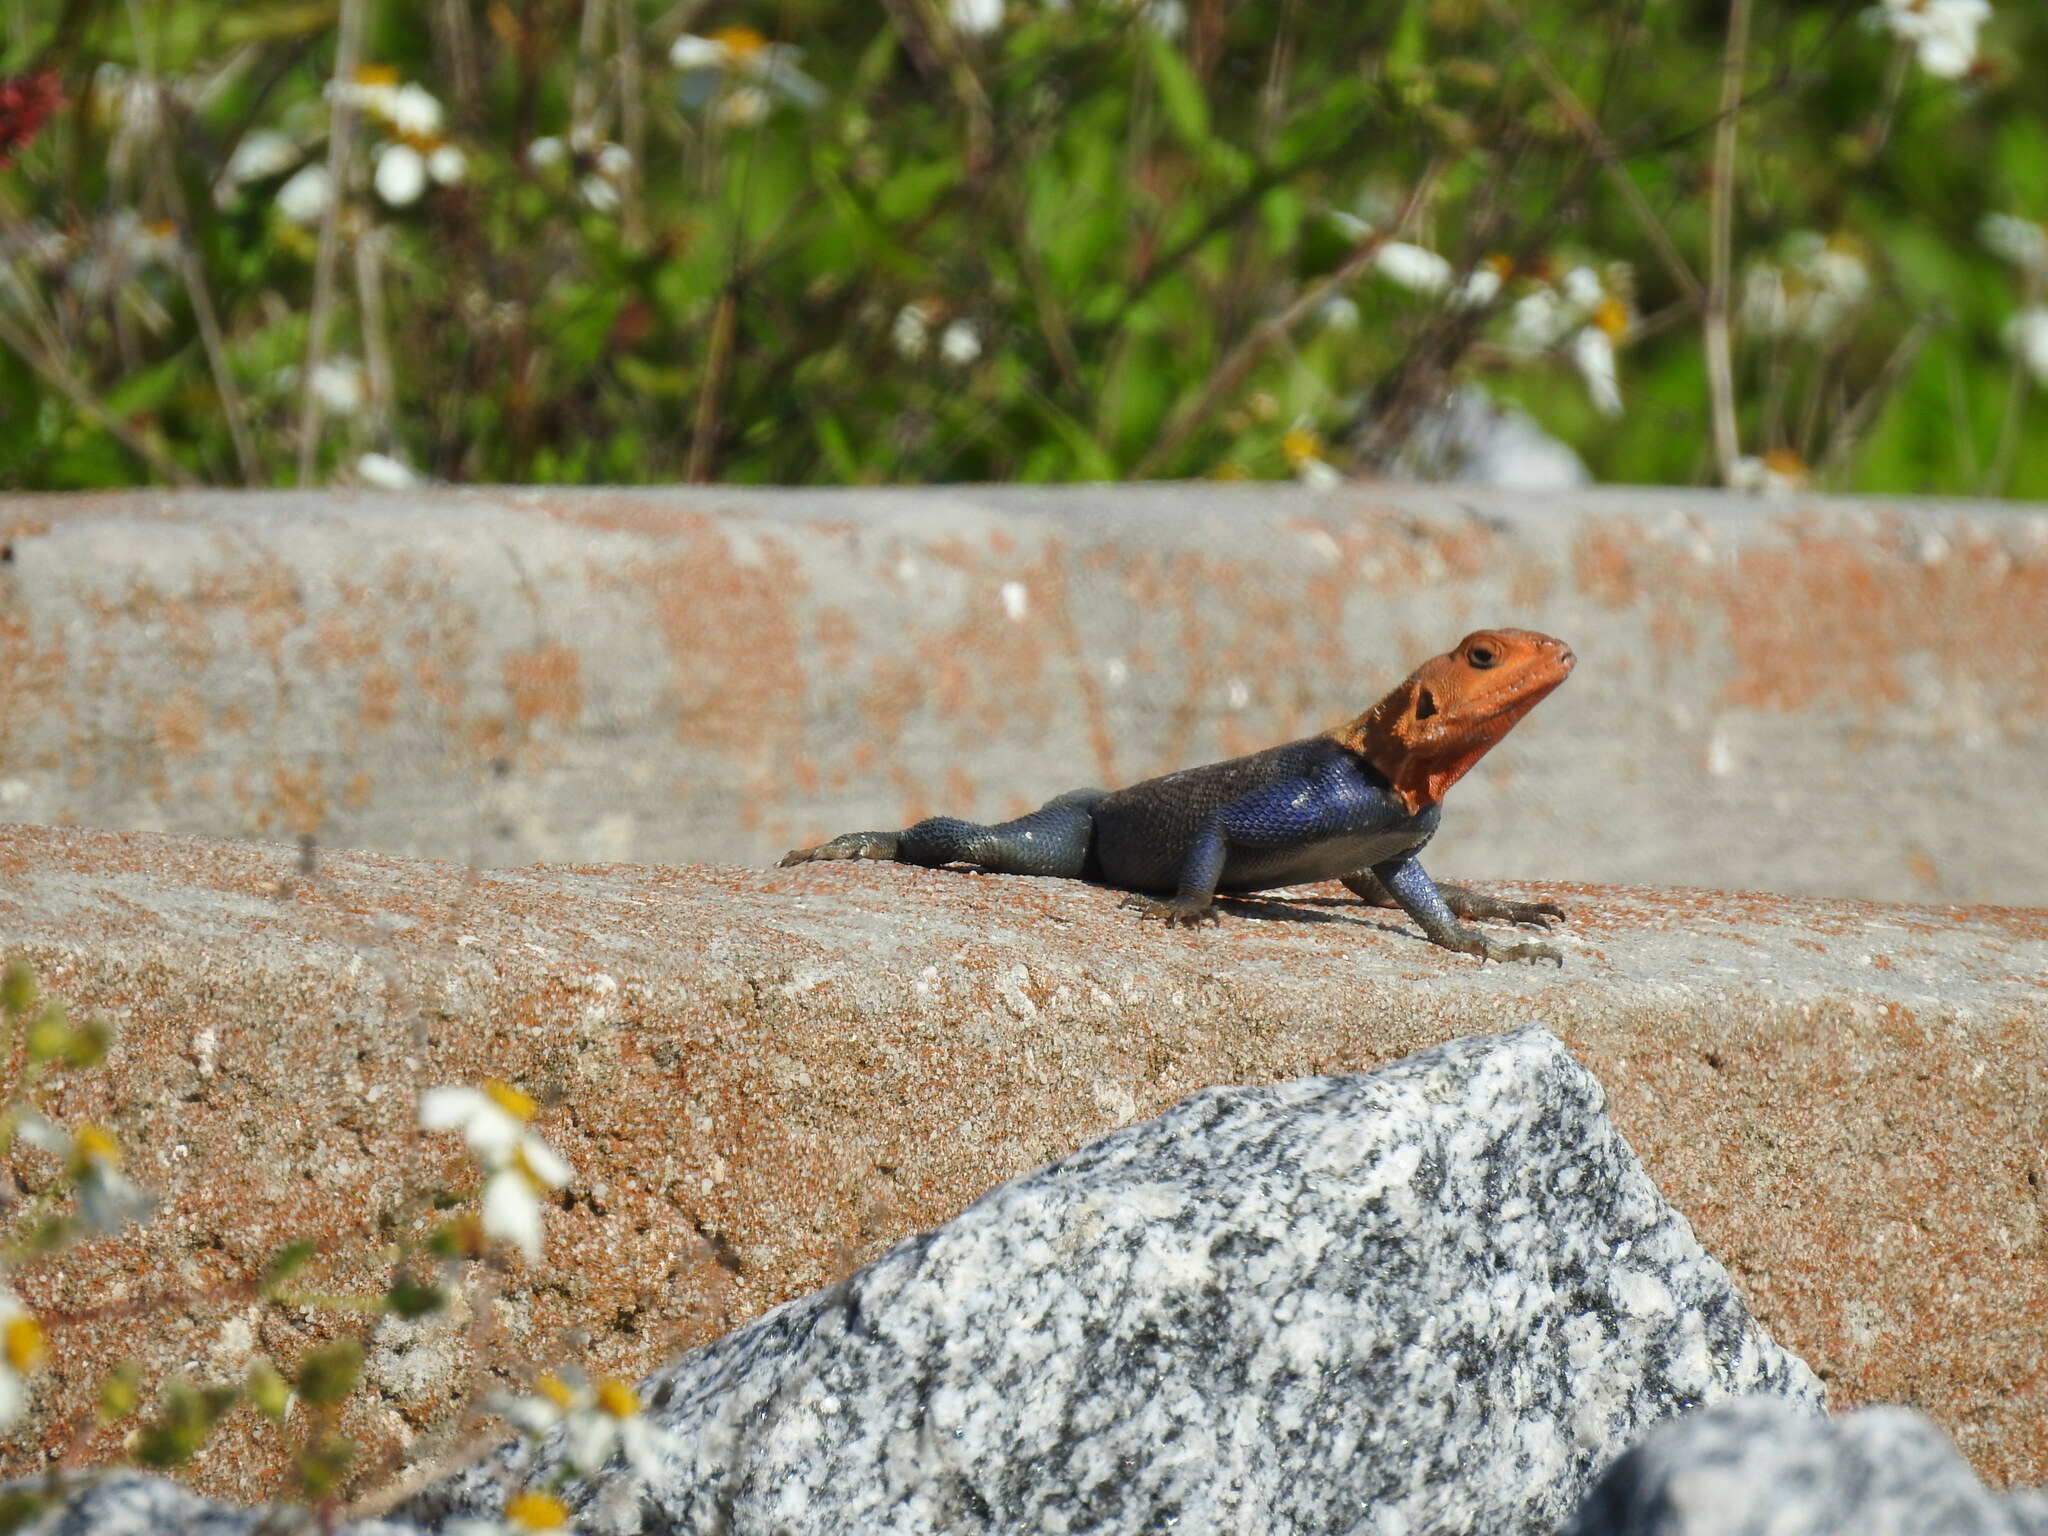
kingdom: Animalia
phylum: Chordata
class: Squamata
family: Agamidae
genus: Agama
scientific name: Agama picticauda
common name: Red-headed agama
